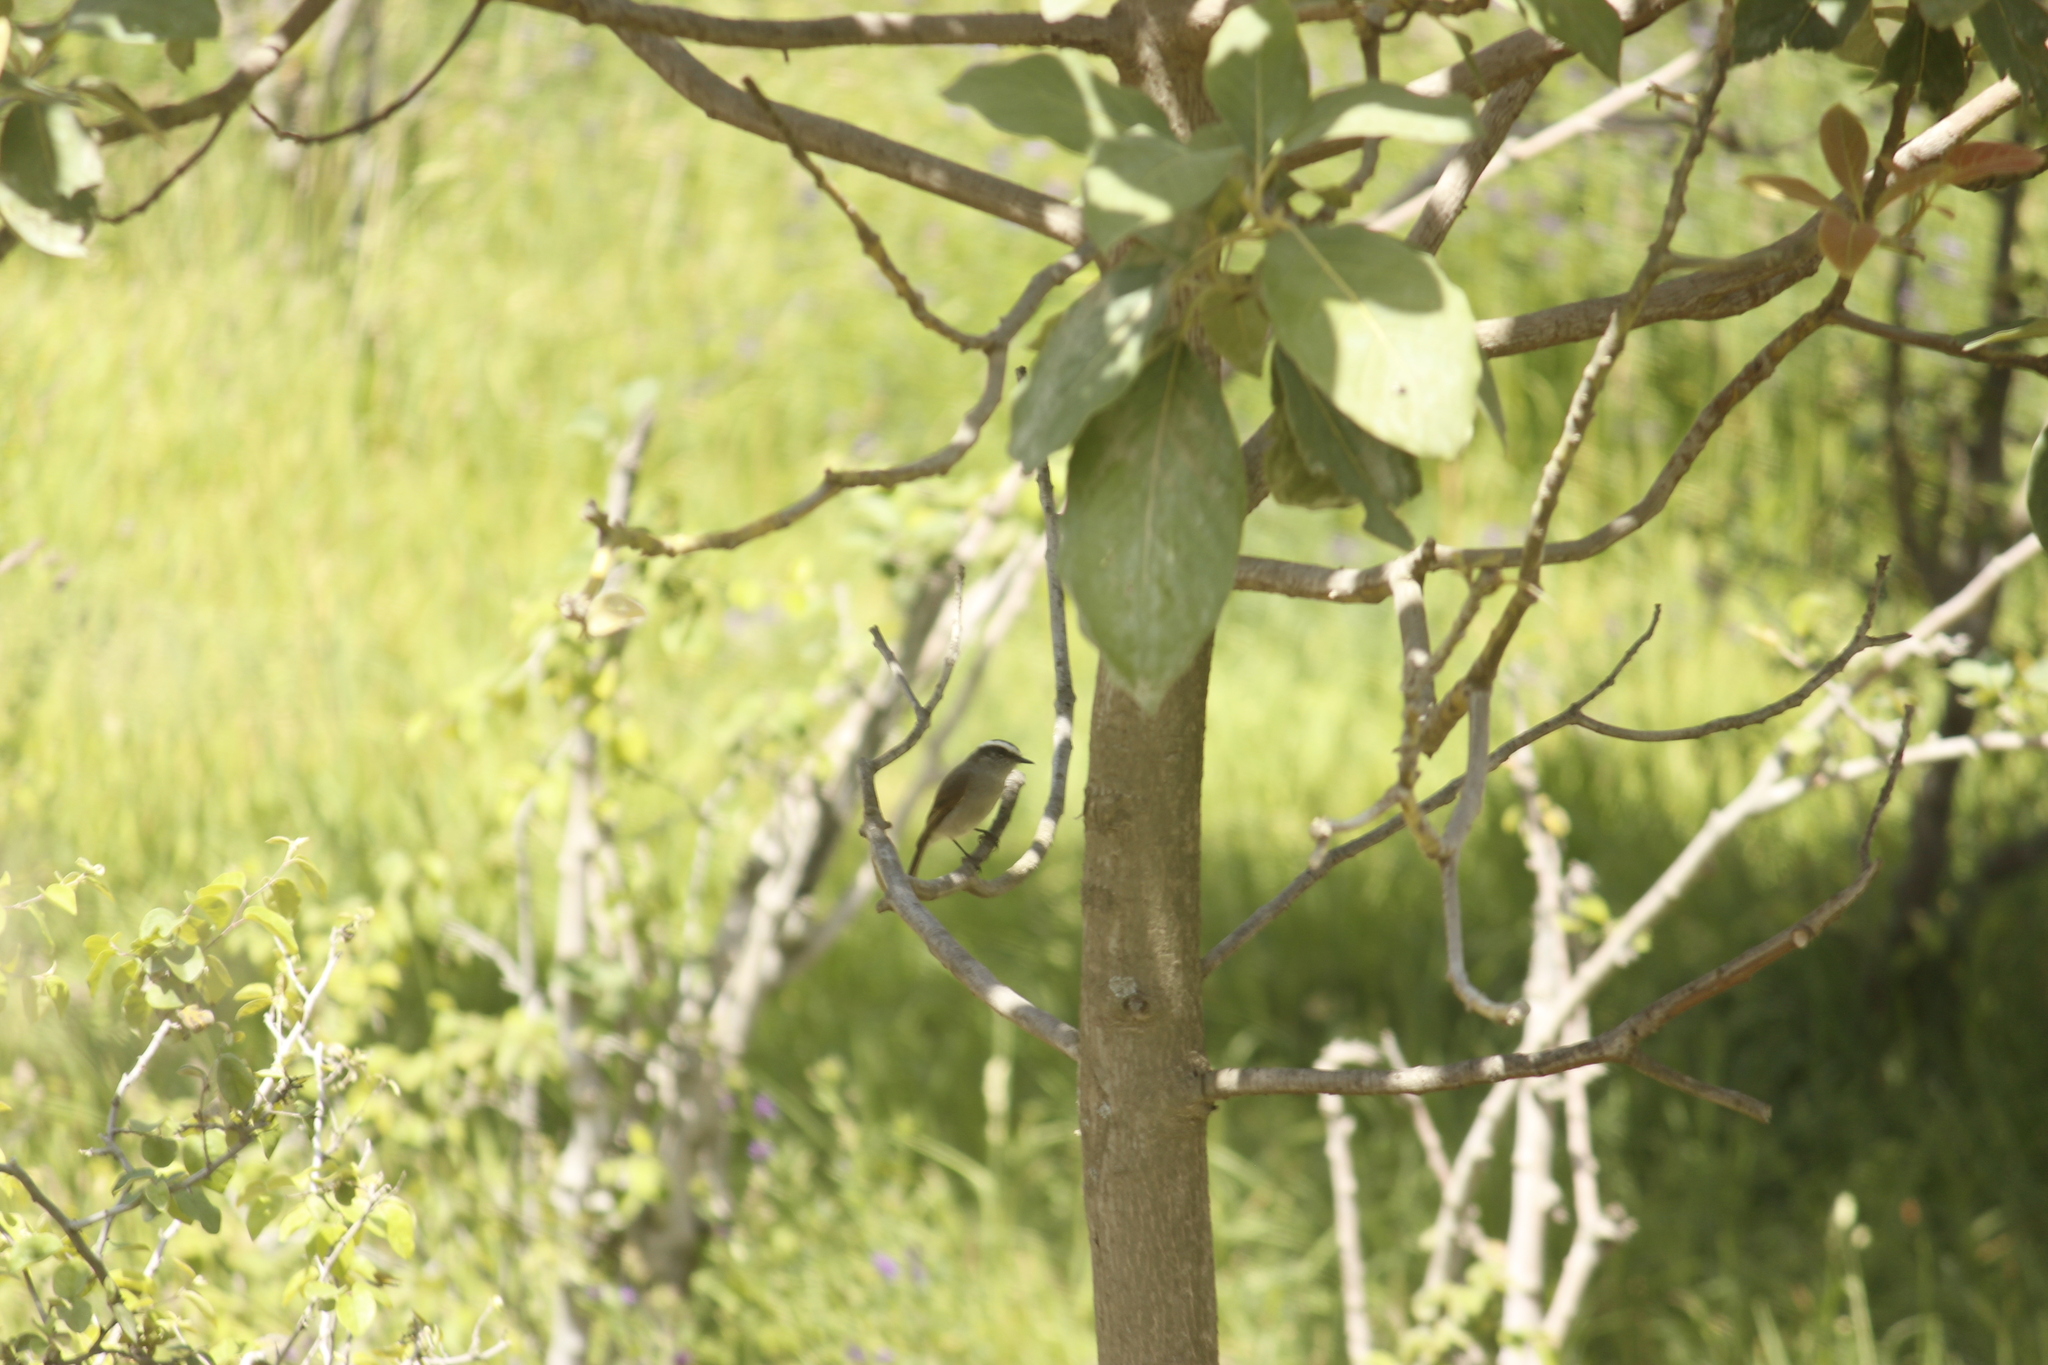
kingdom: Animalia
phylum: Chordata
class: Aves
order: Passeriformes
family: Tyrannidae
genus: Ochthoeca
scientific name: Ochthoeca leucophrys
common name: White-browed chat-tyrant
